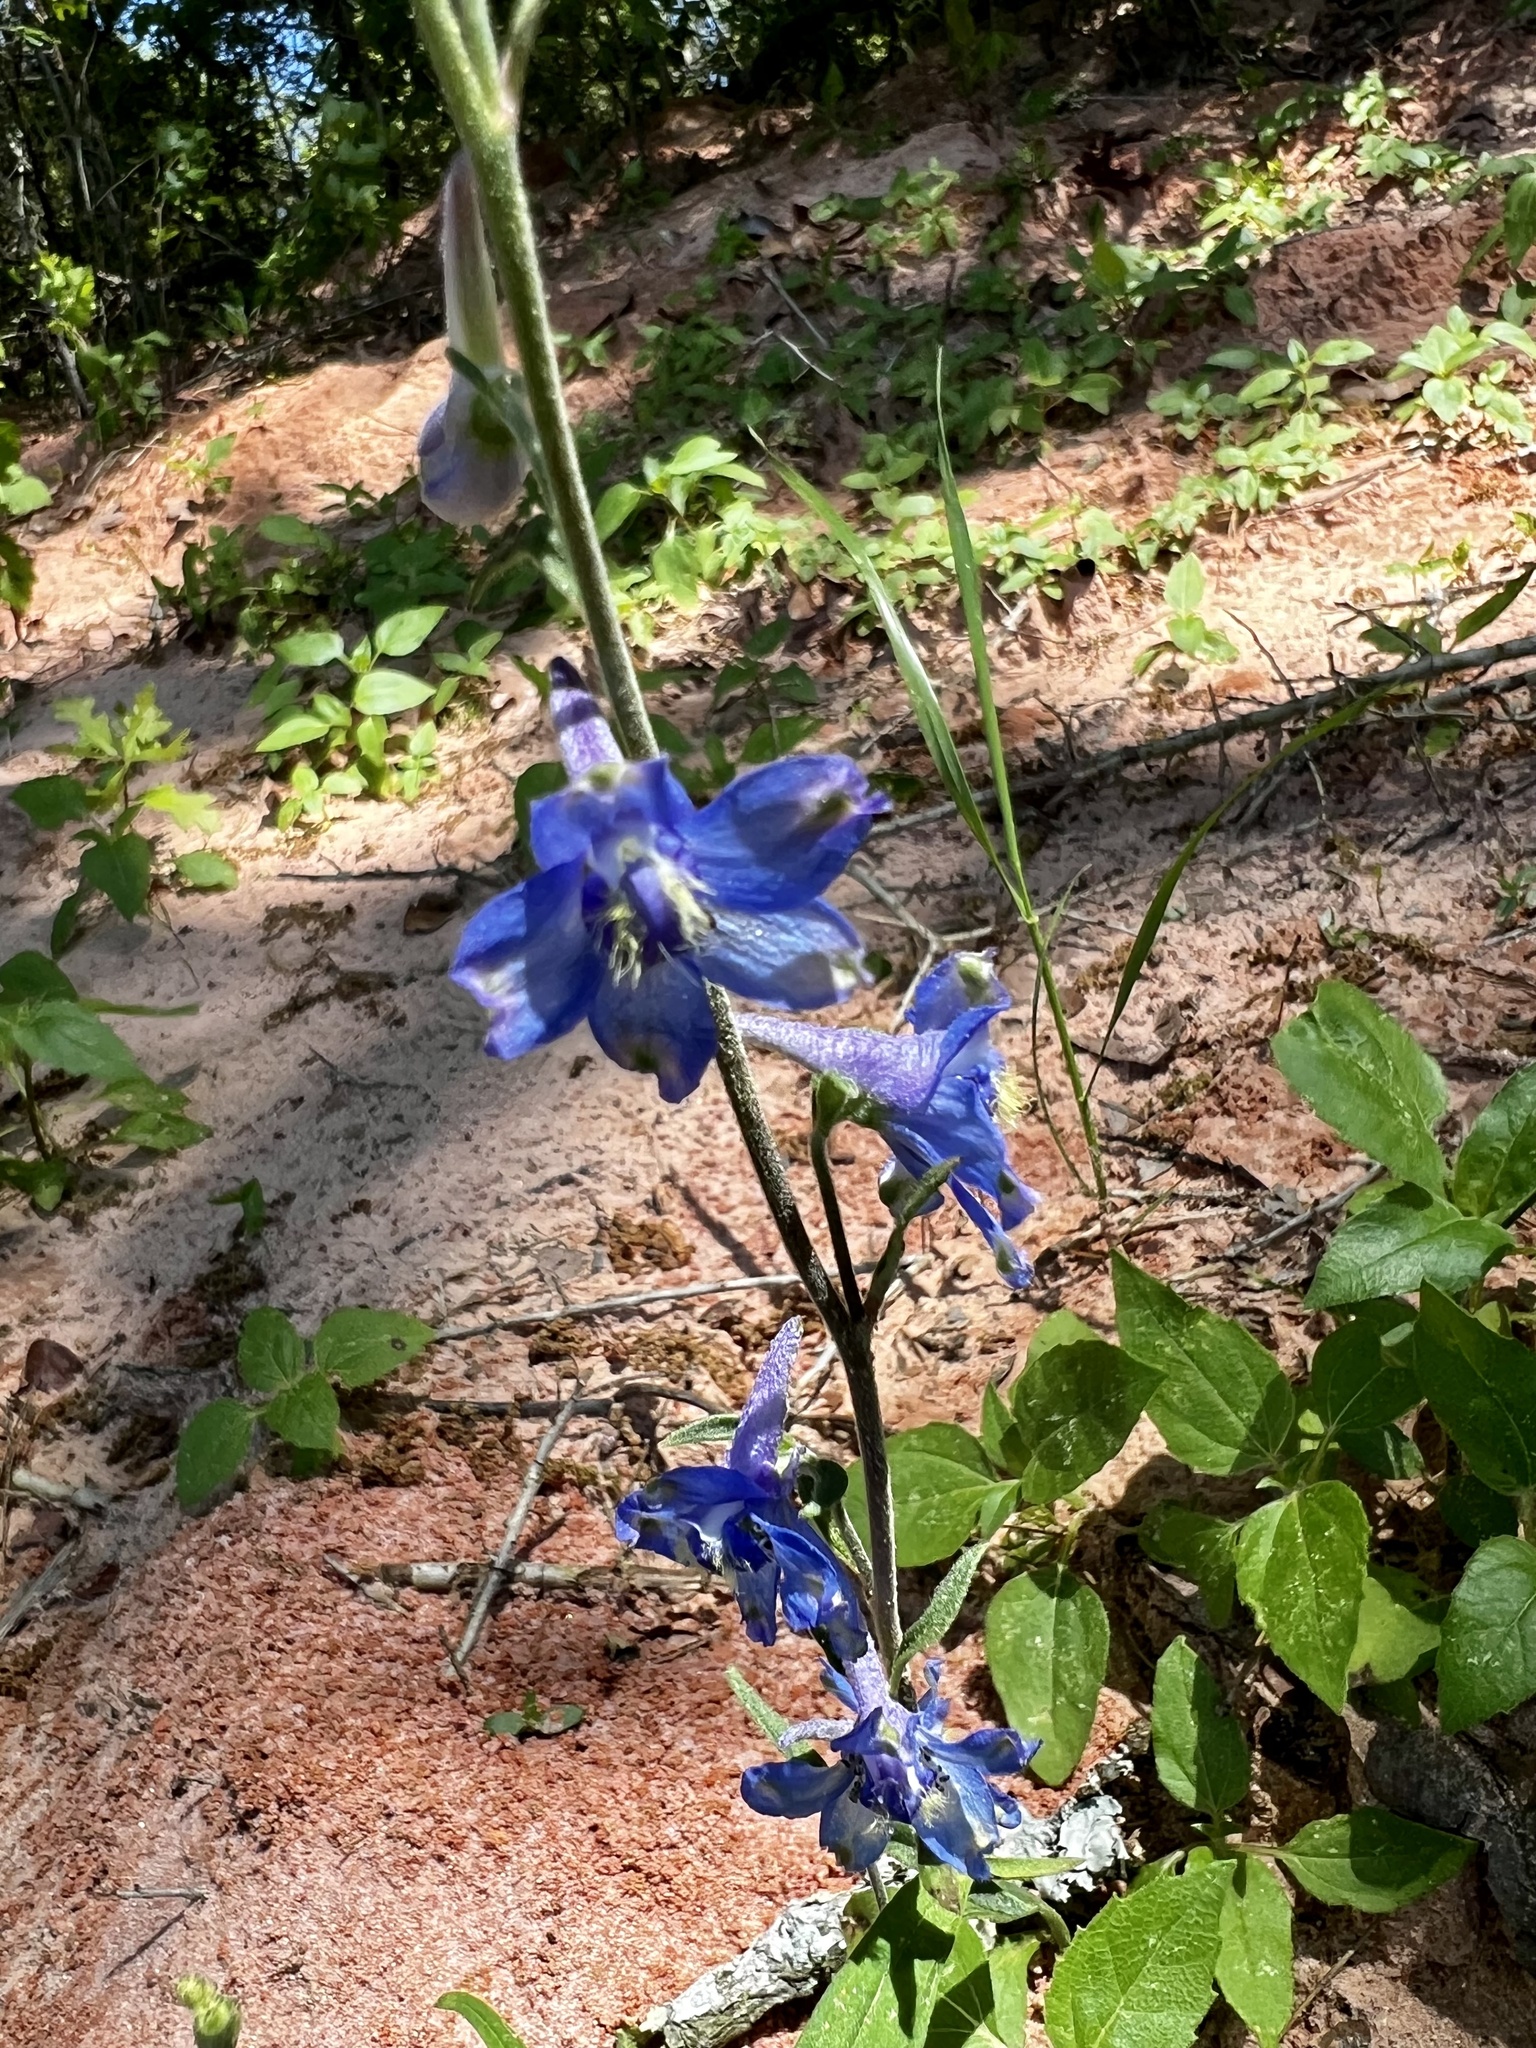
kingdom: Plantae
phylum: Tracheophyta
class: Magnoliopsida
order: Ranunculales
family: Ranunculaceae
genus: Delphinium
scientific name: Delphinium carolinianum
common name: Carolina larkspur
